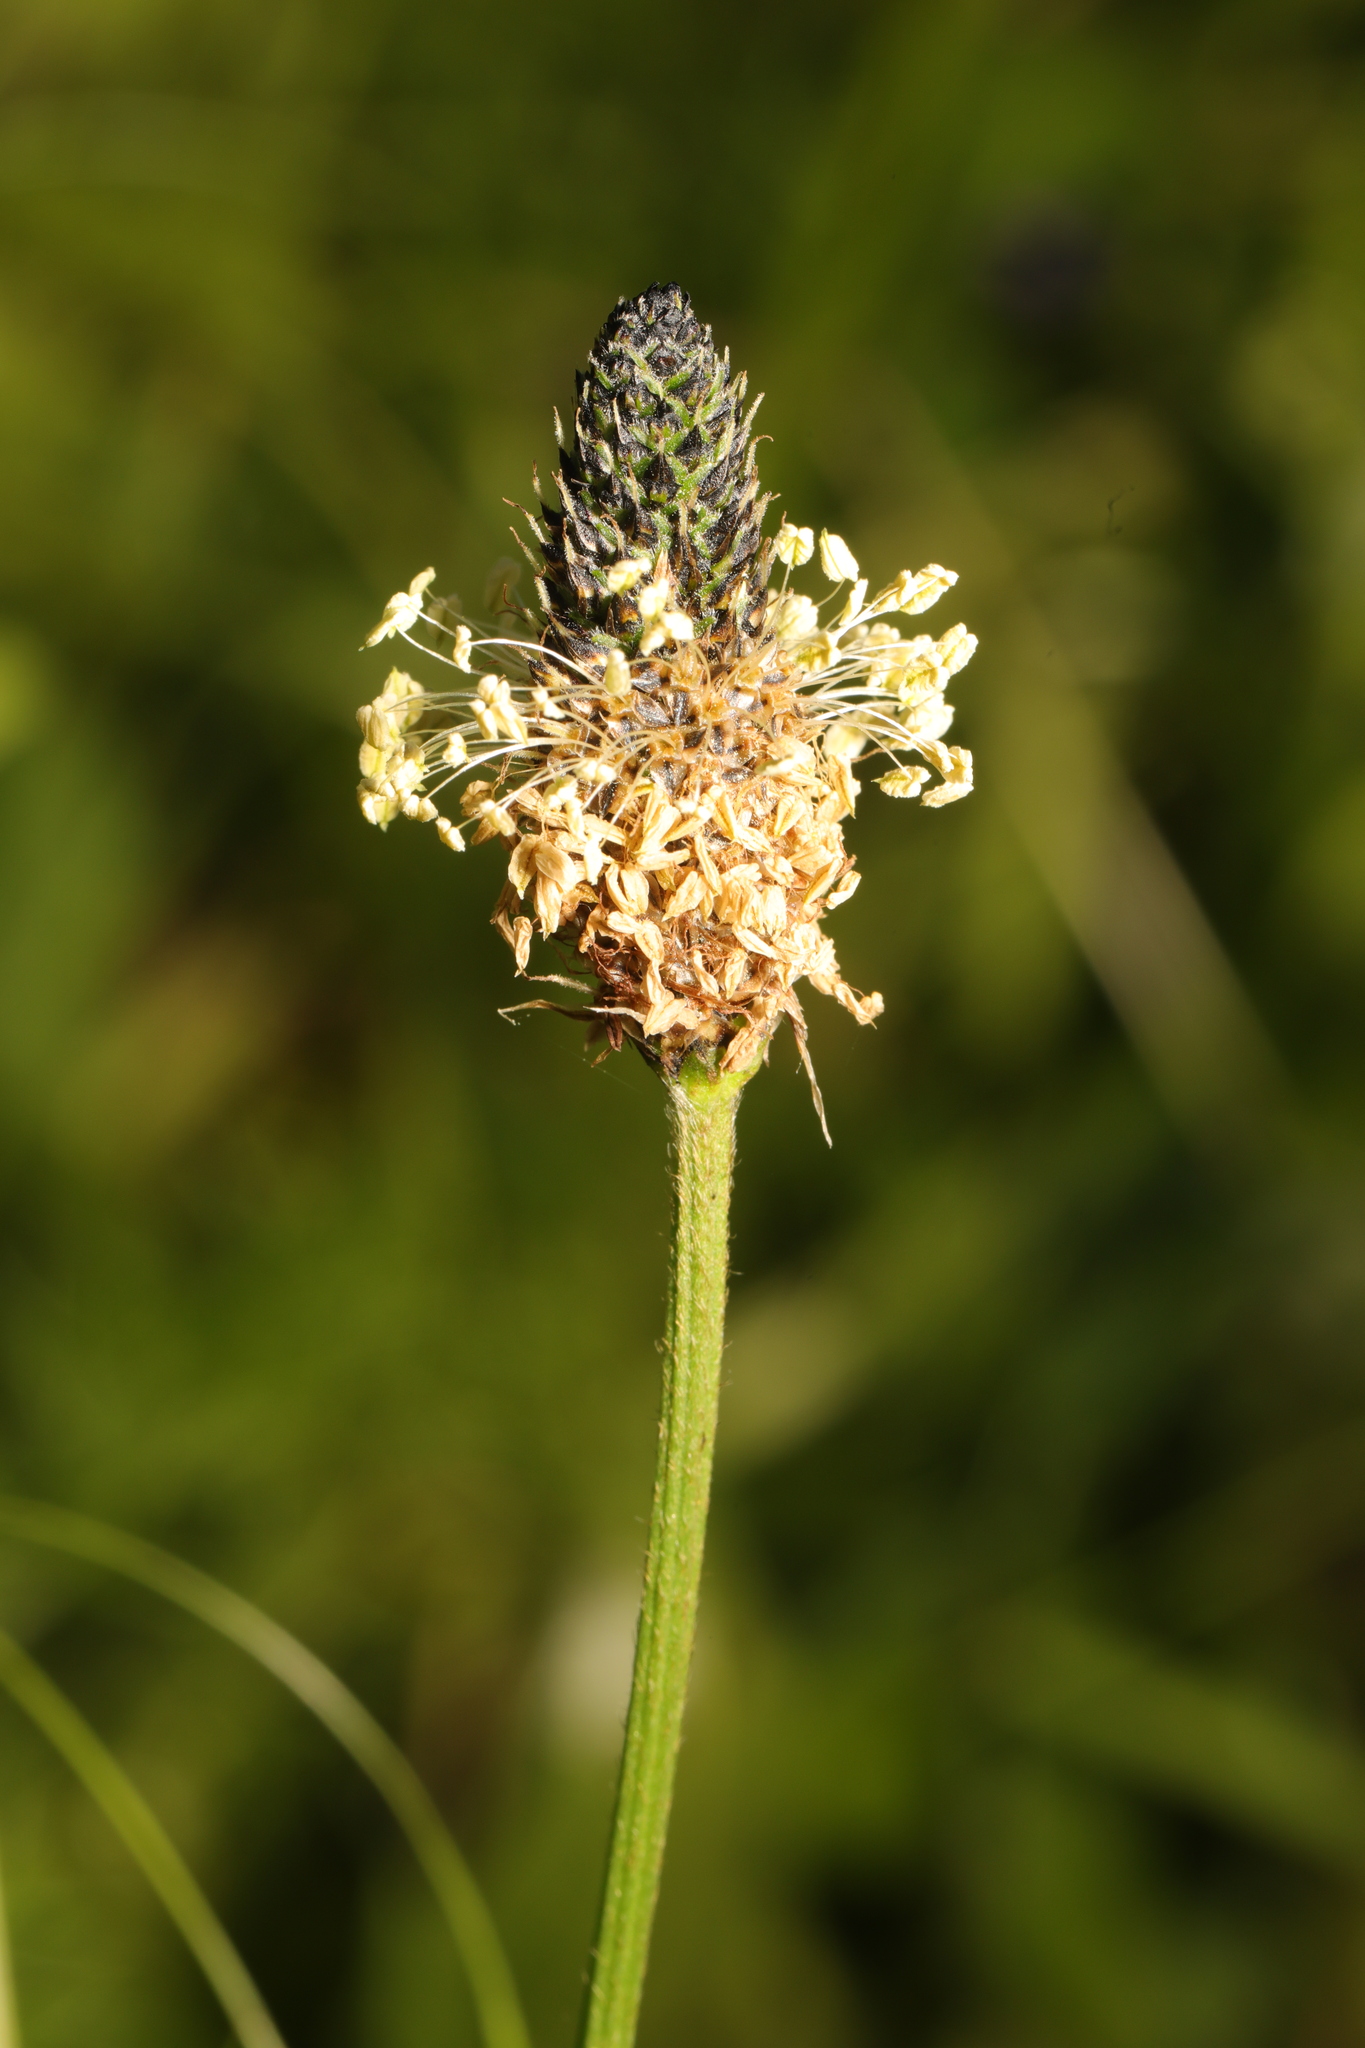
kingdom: Plantae
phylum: Tracheophyta
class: Magnoliopsida
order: Lamiales
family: Plantaginaceae
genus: Plantago
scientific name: Plantago lanceolata
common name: Ribwort plantain
